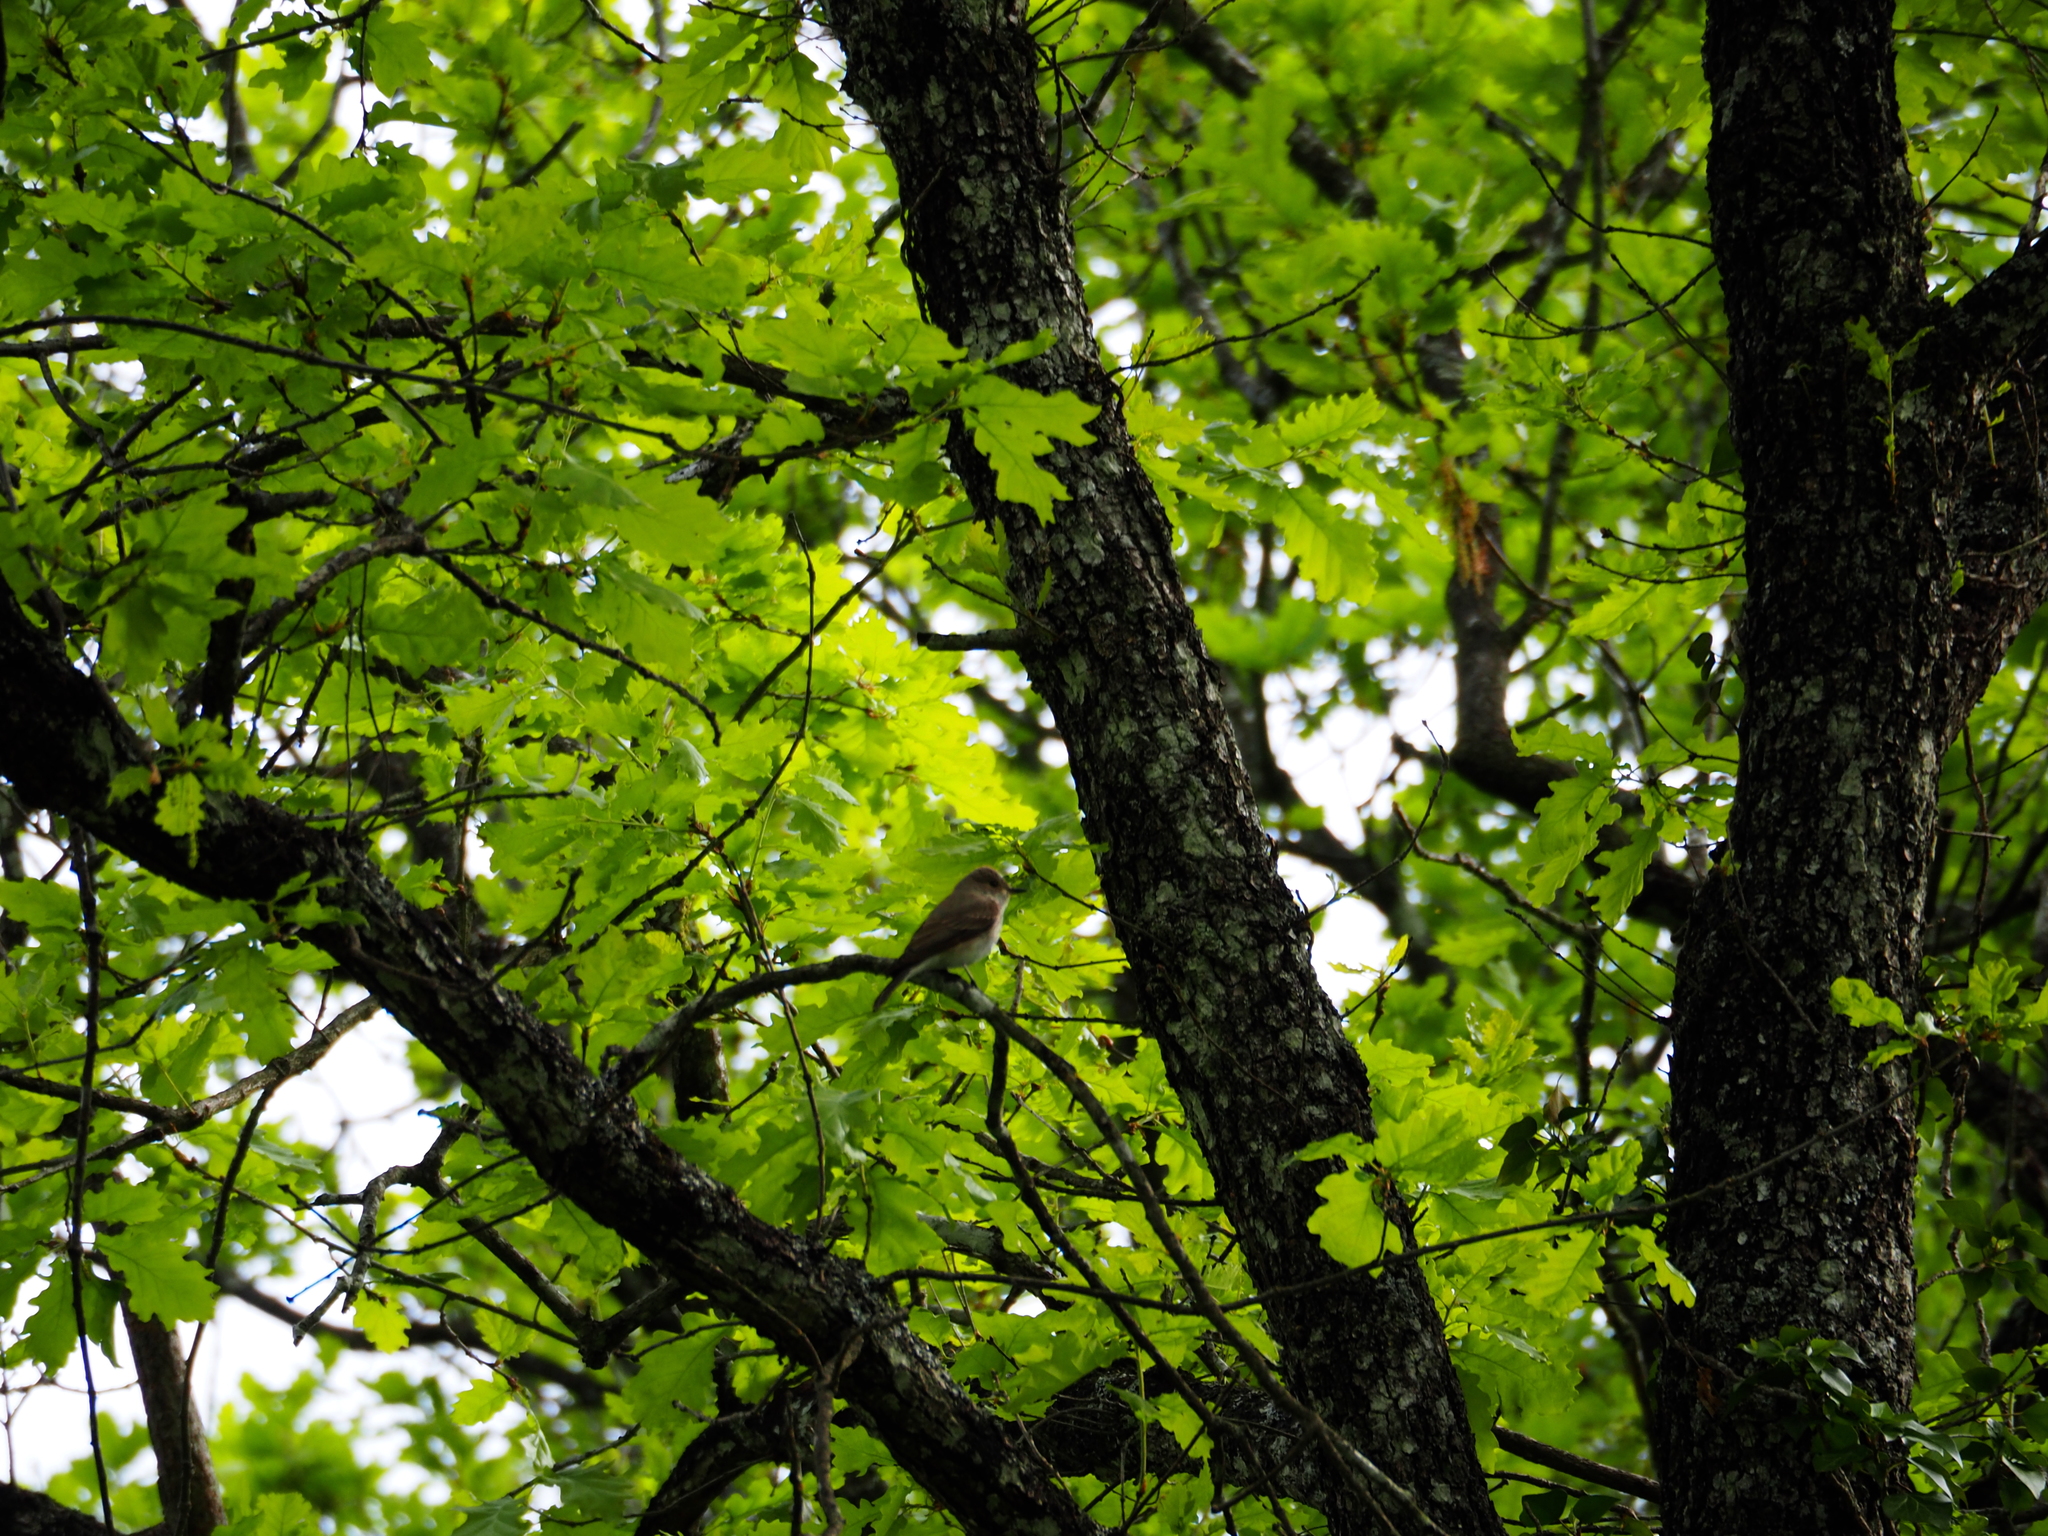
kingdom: Animalia
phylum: Chordata
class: Aves
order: Passeriformes
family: Muscicapidae
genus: Muscicapa
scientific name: Muscicapa striata
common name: Spotted flycatcher
